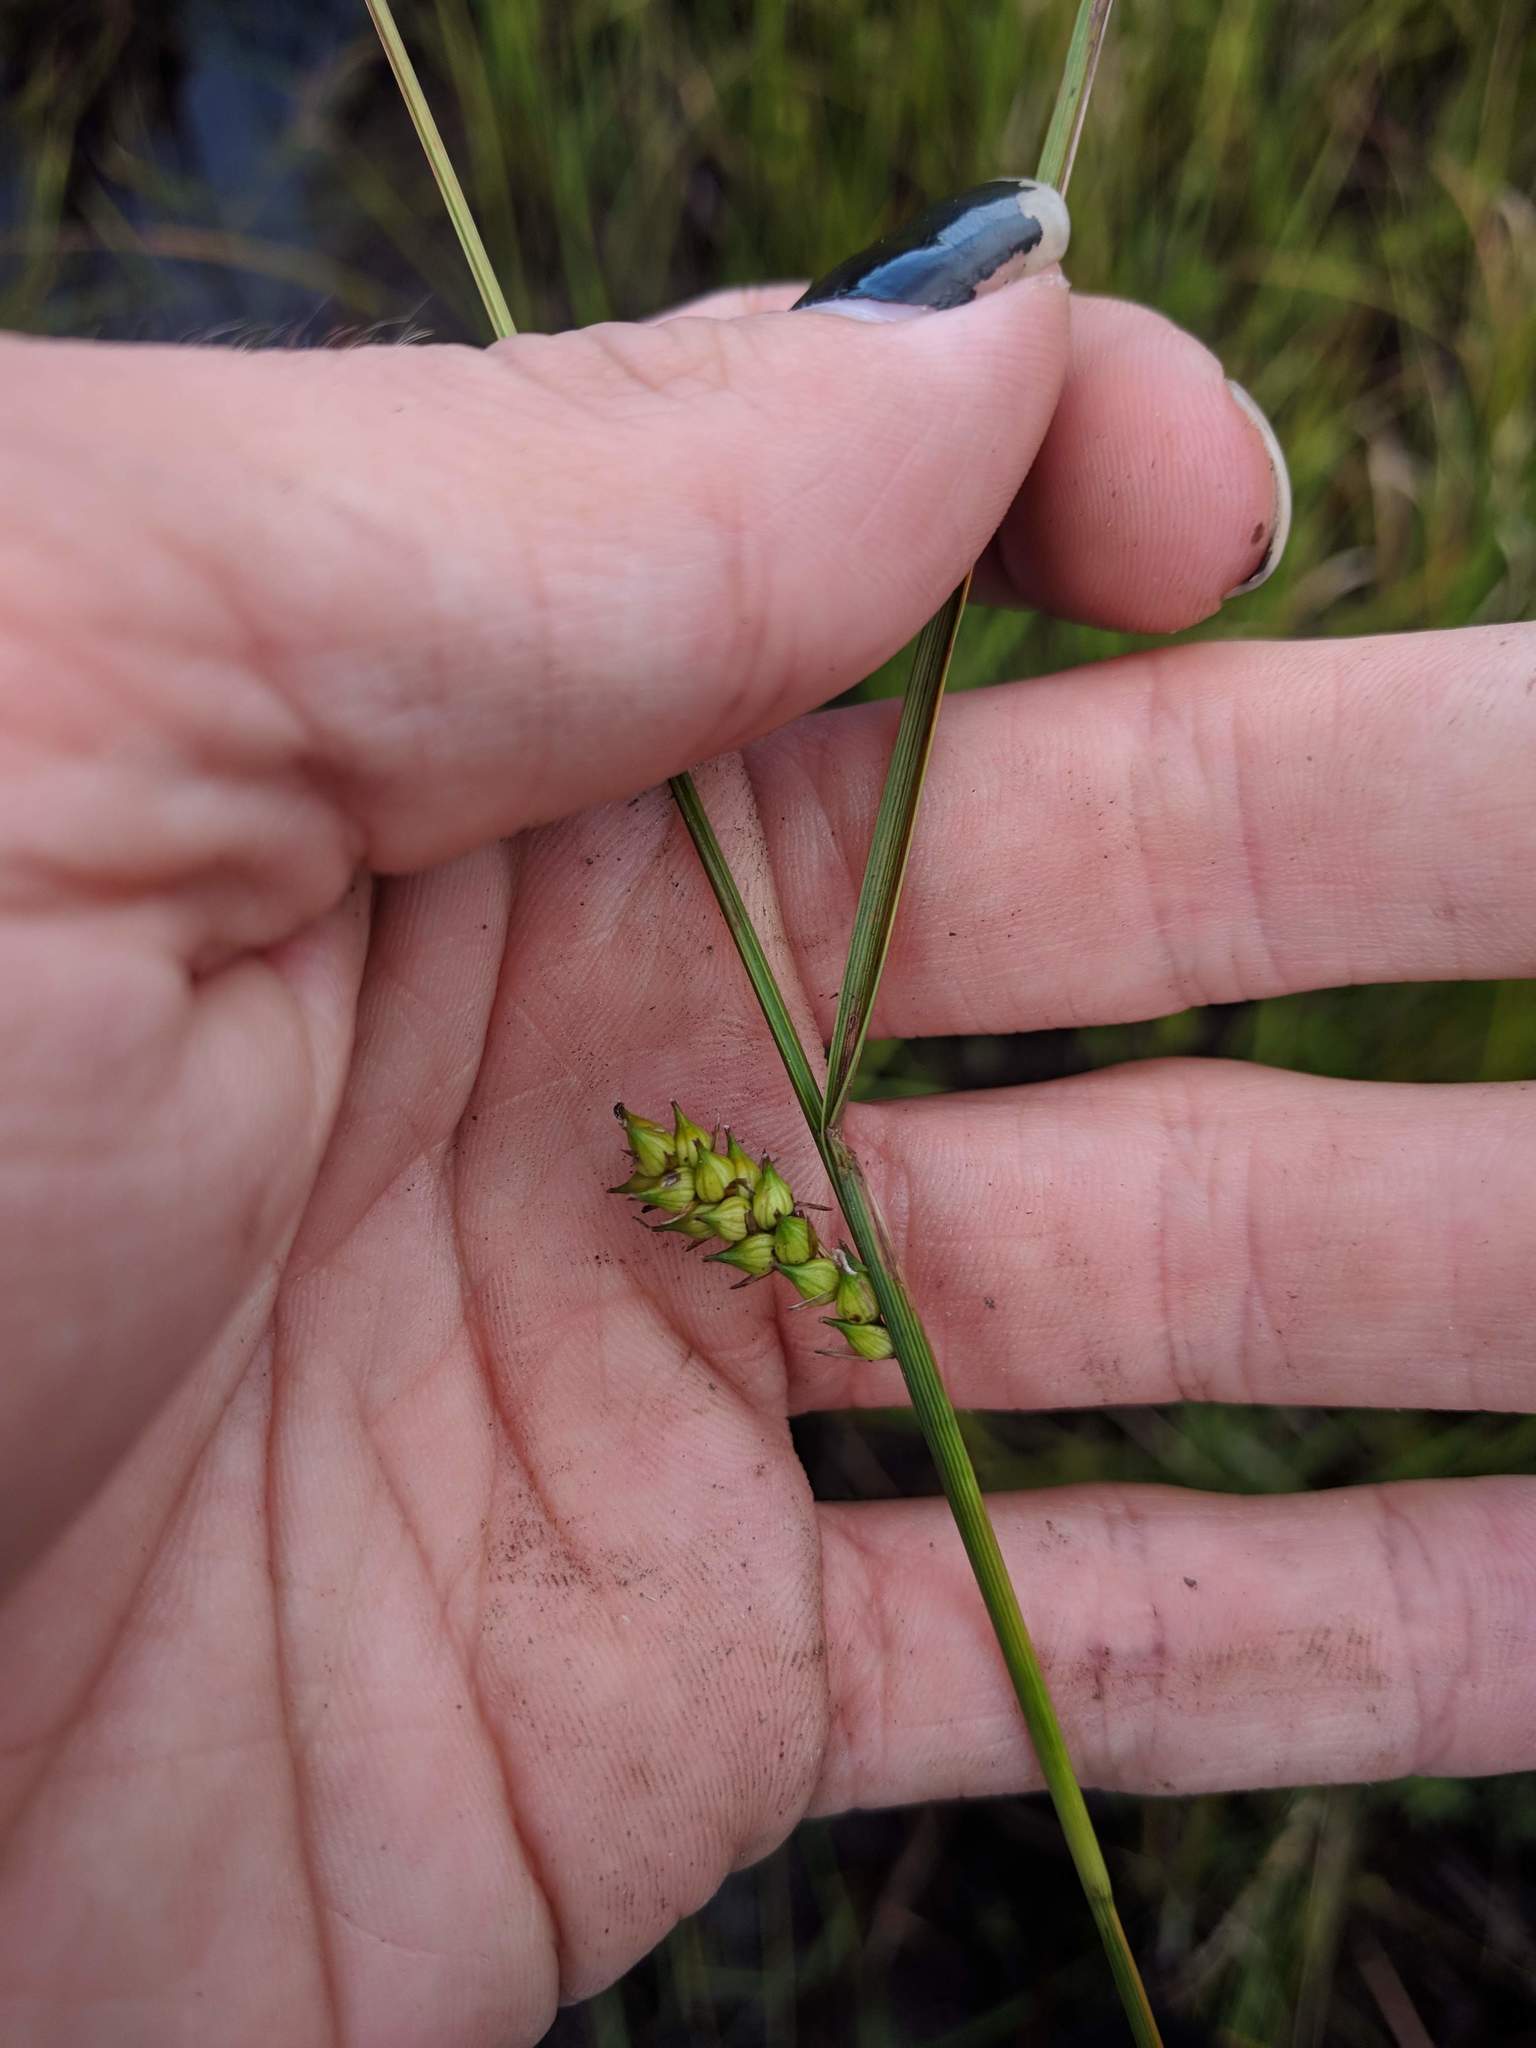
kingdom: Plantae
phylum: Tracheophyta
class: Liliopsida
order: Poales
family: Cyperaceae
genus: Carex
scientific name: Carex striata
